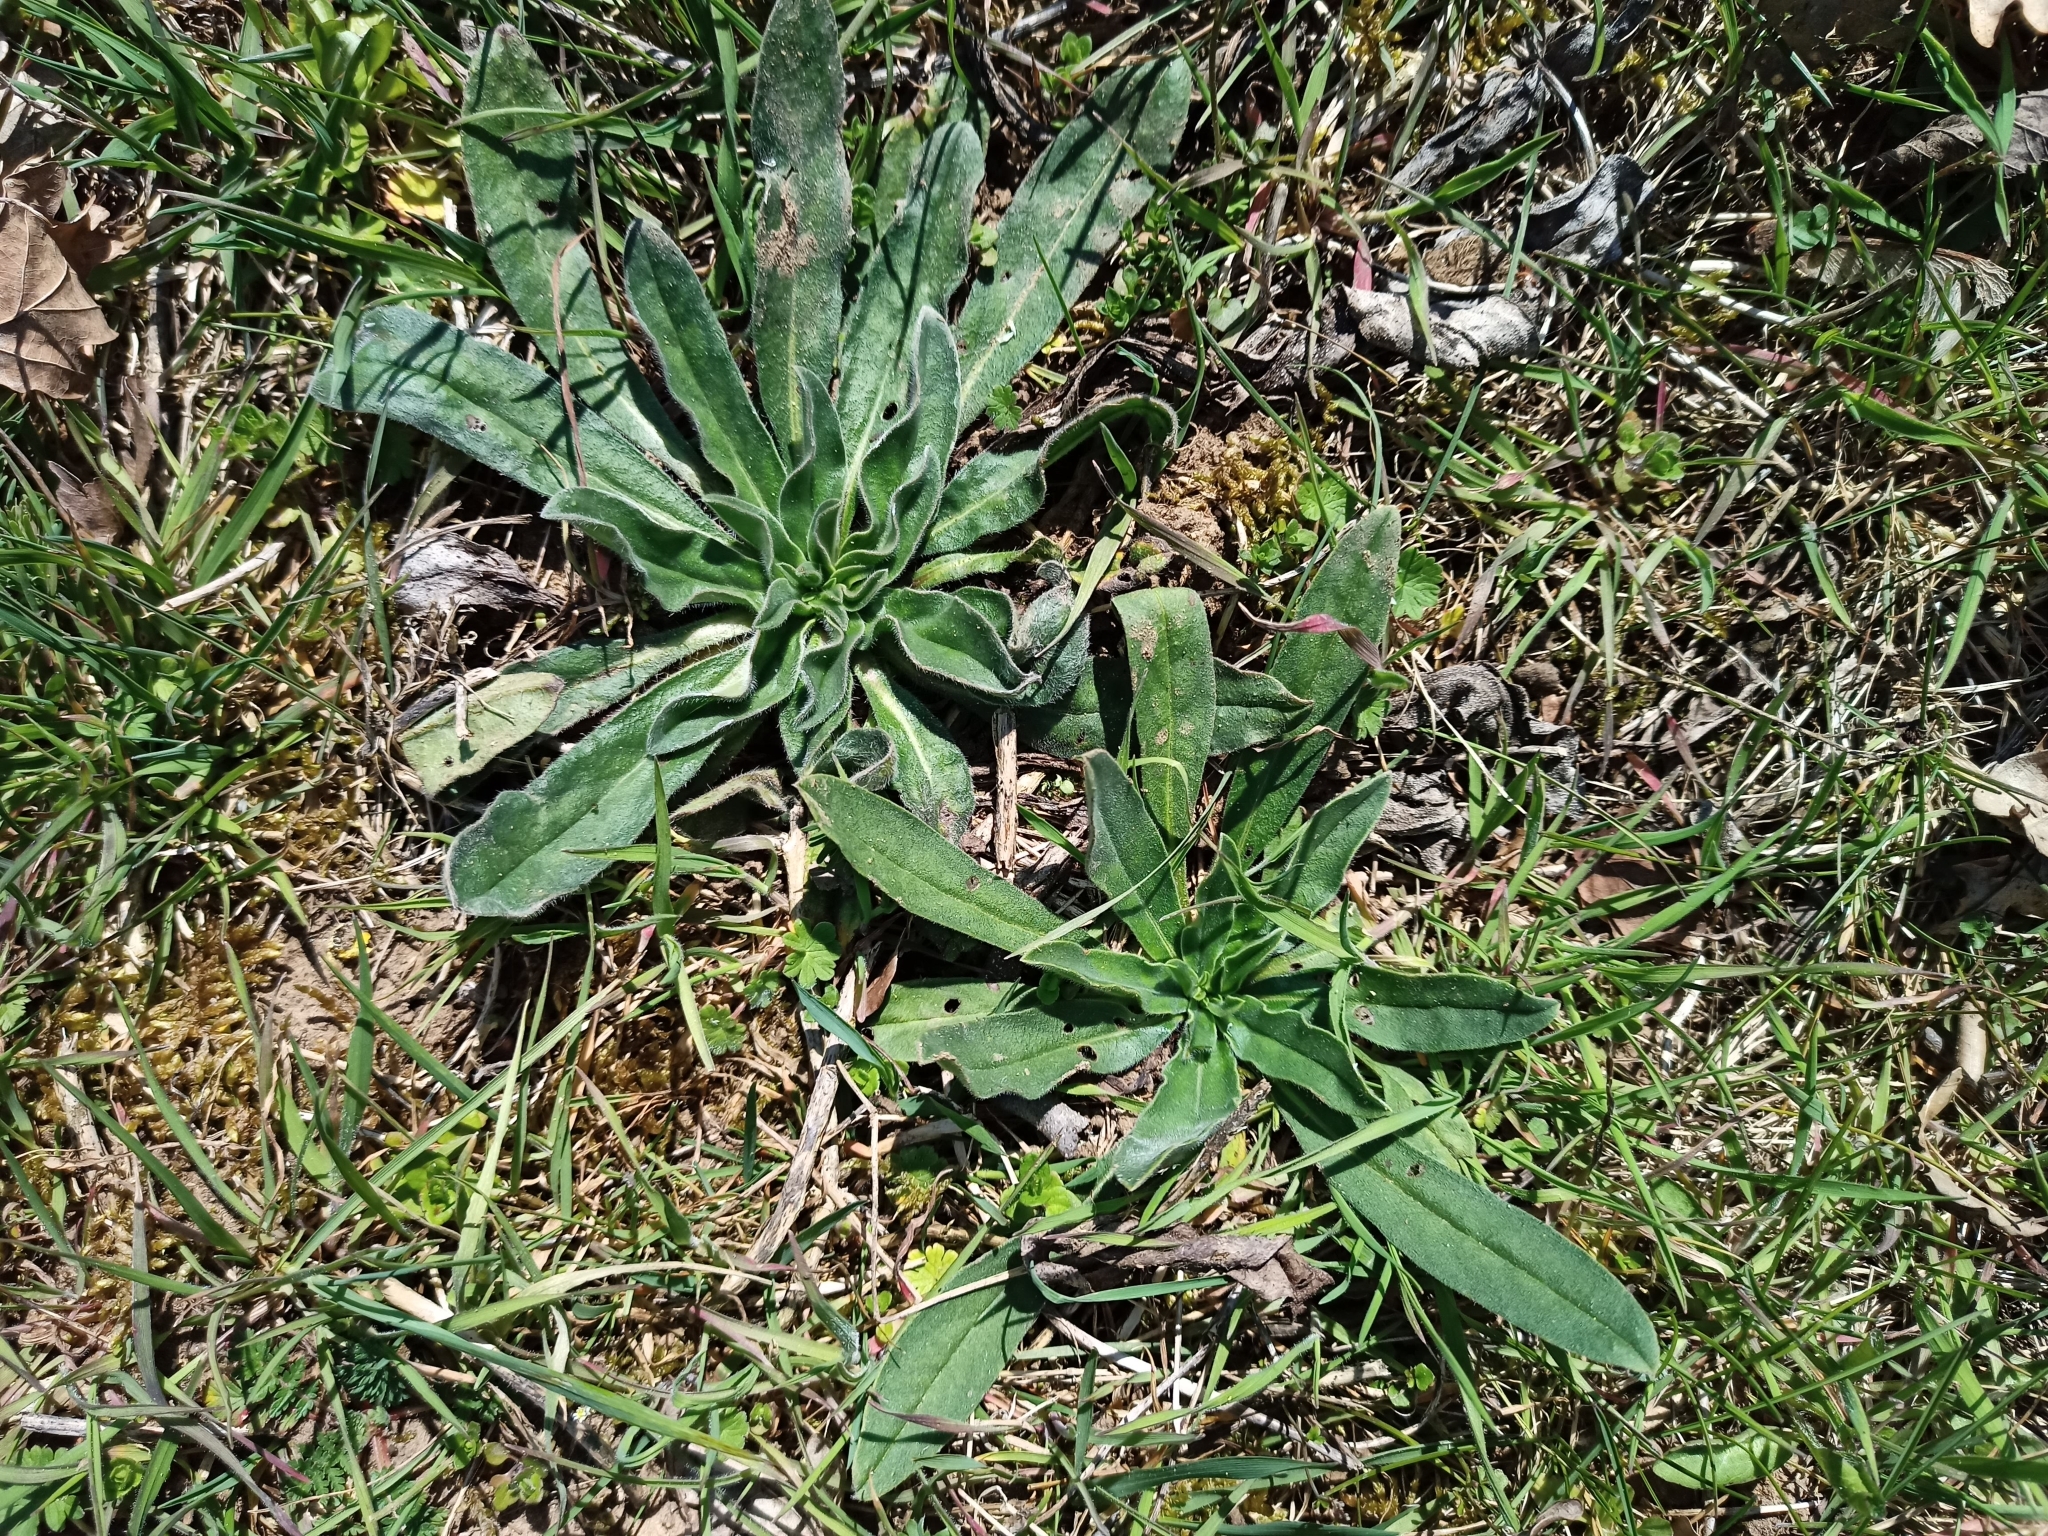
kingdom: Plantae
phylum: Tracheophyta
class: Magnoliopsida
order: Boraginales
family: Boraginaceae
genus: Echium
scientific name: Echium vulgare
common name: Common viper's bugloss
